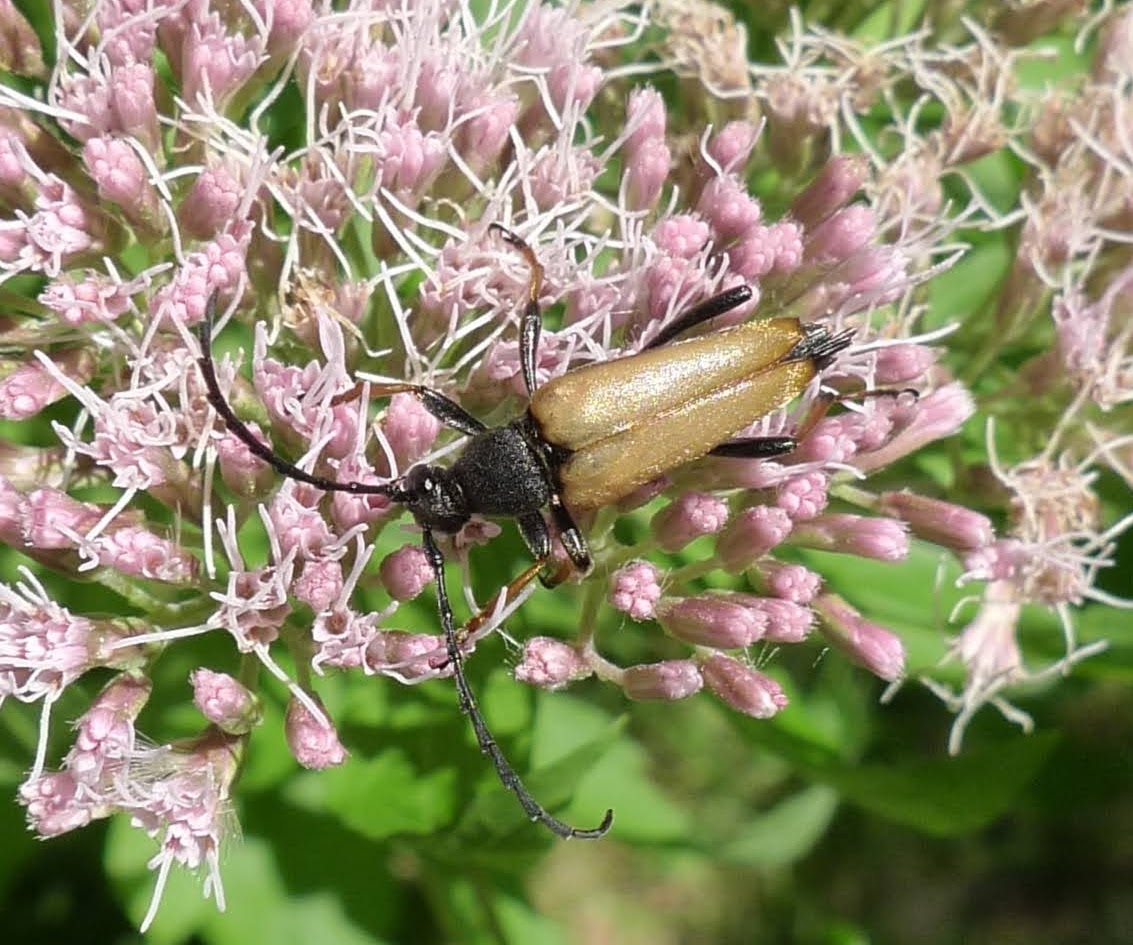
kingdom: Animalia
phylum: Arthropoda
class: Insecta
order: Coleoptera
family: Cerambycidae
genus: Stictoleptura
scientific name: Stictoleptura rubra
